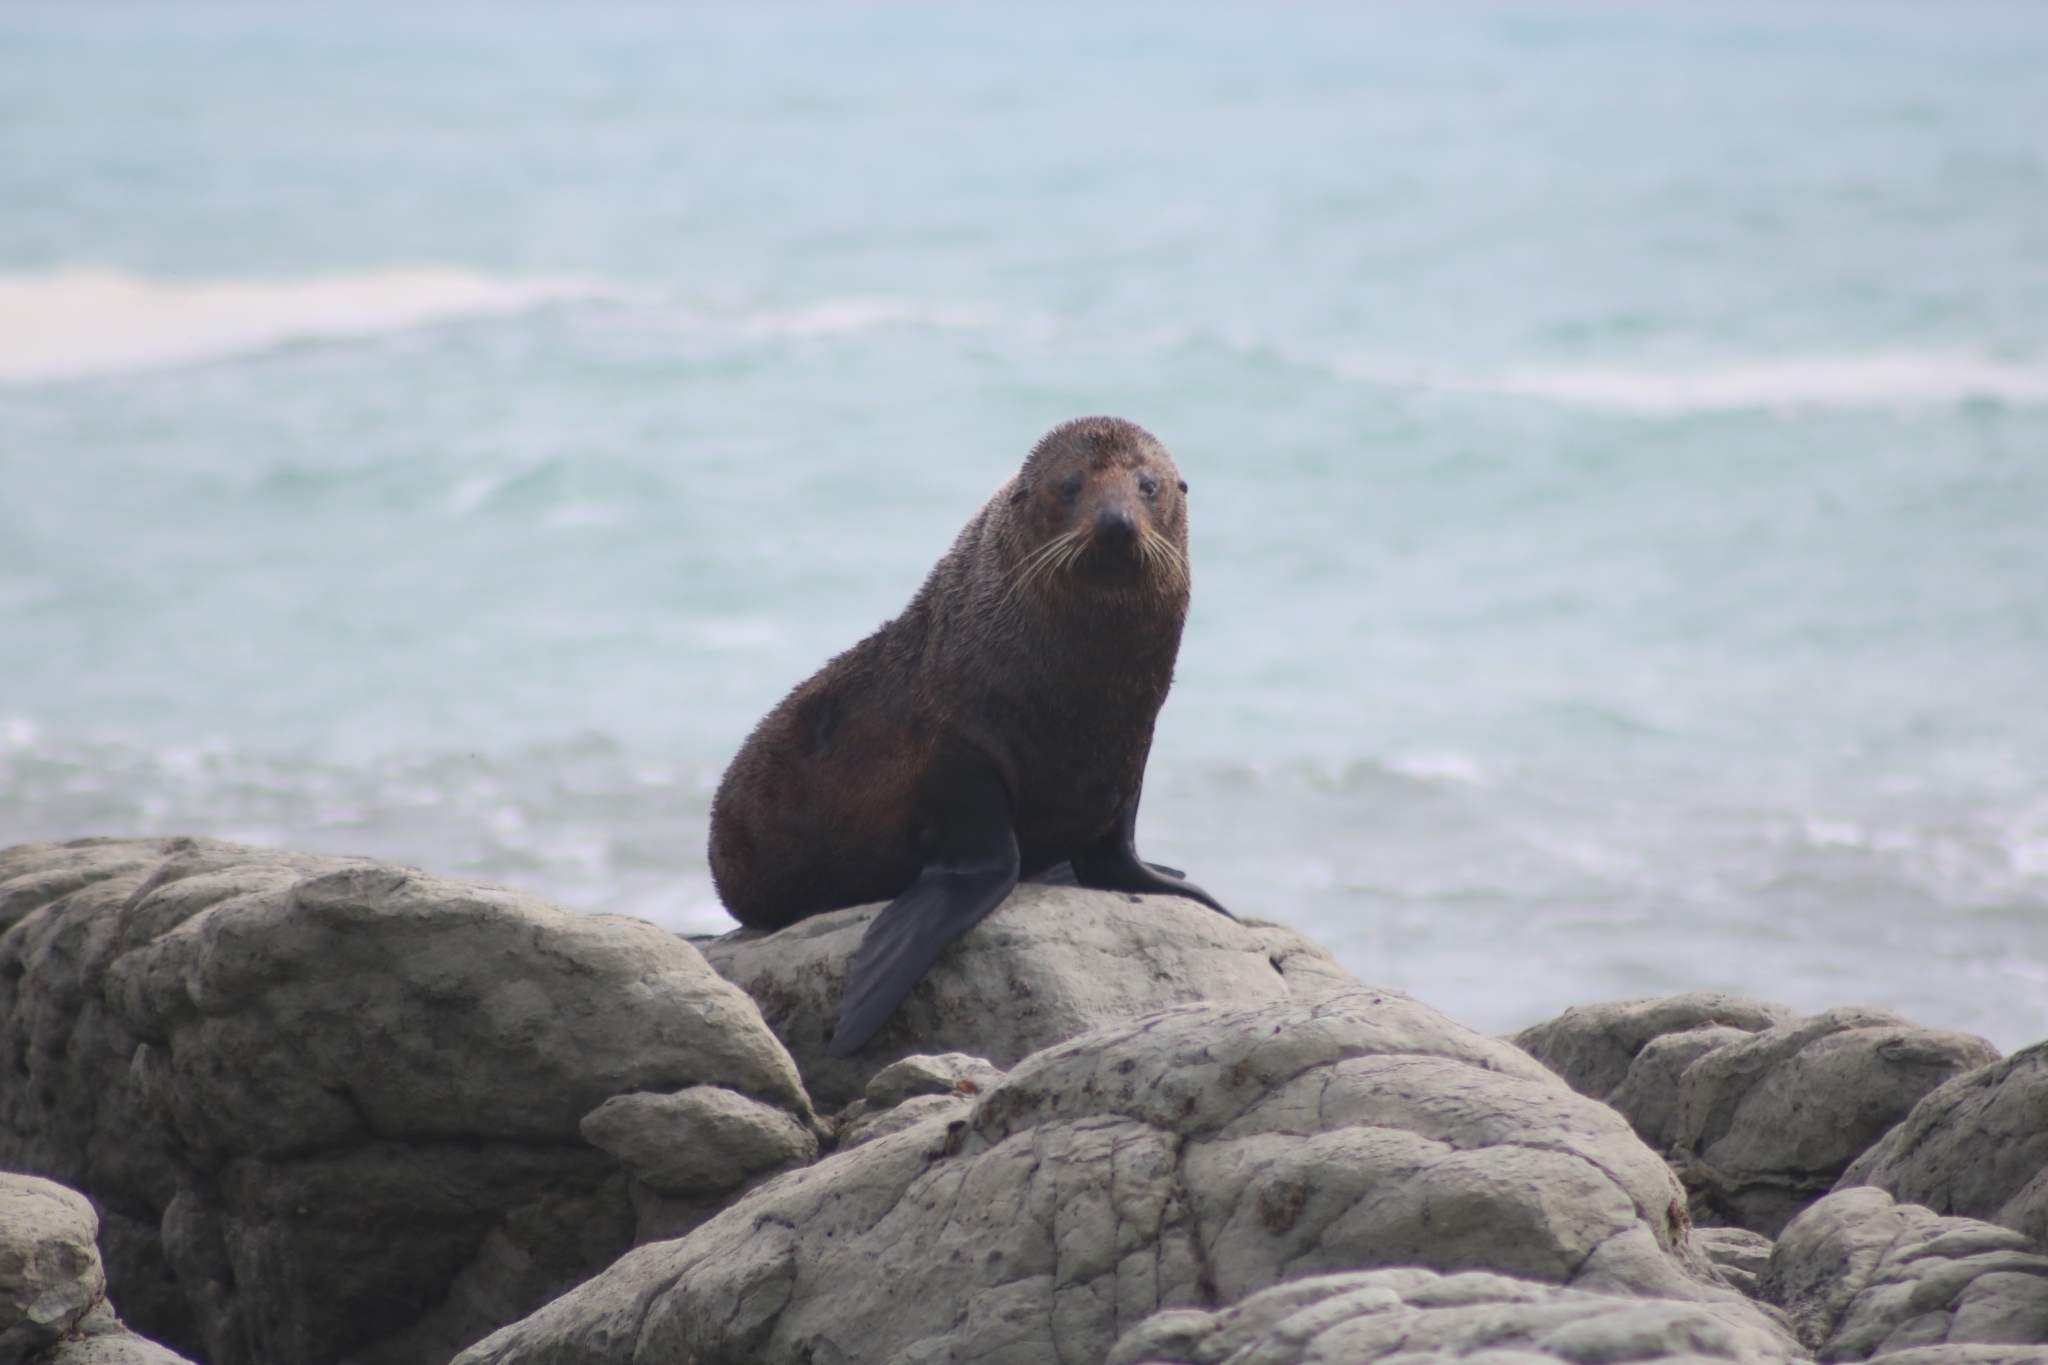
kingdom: Animalia
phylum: Chordata
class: Mammalia
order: Carnivora
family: Otariidae
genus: Arctocephalus
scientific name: Arctocephalus forsteri
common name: New zealand fur seal
